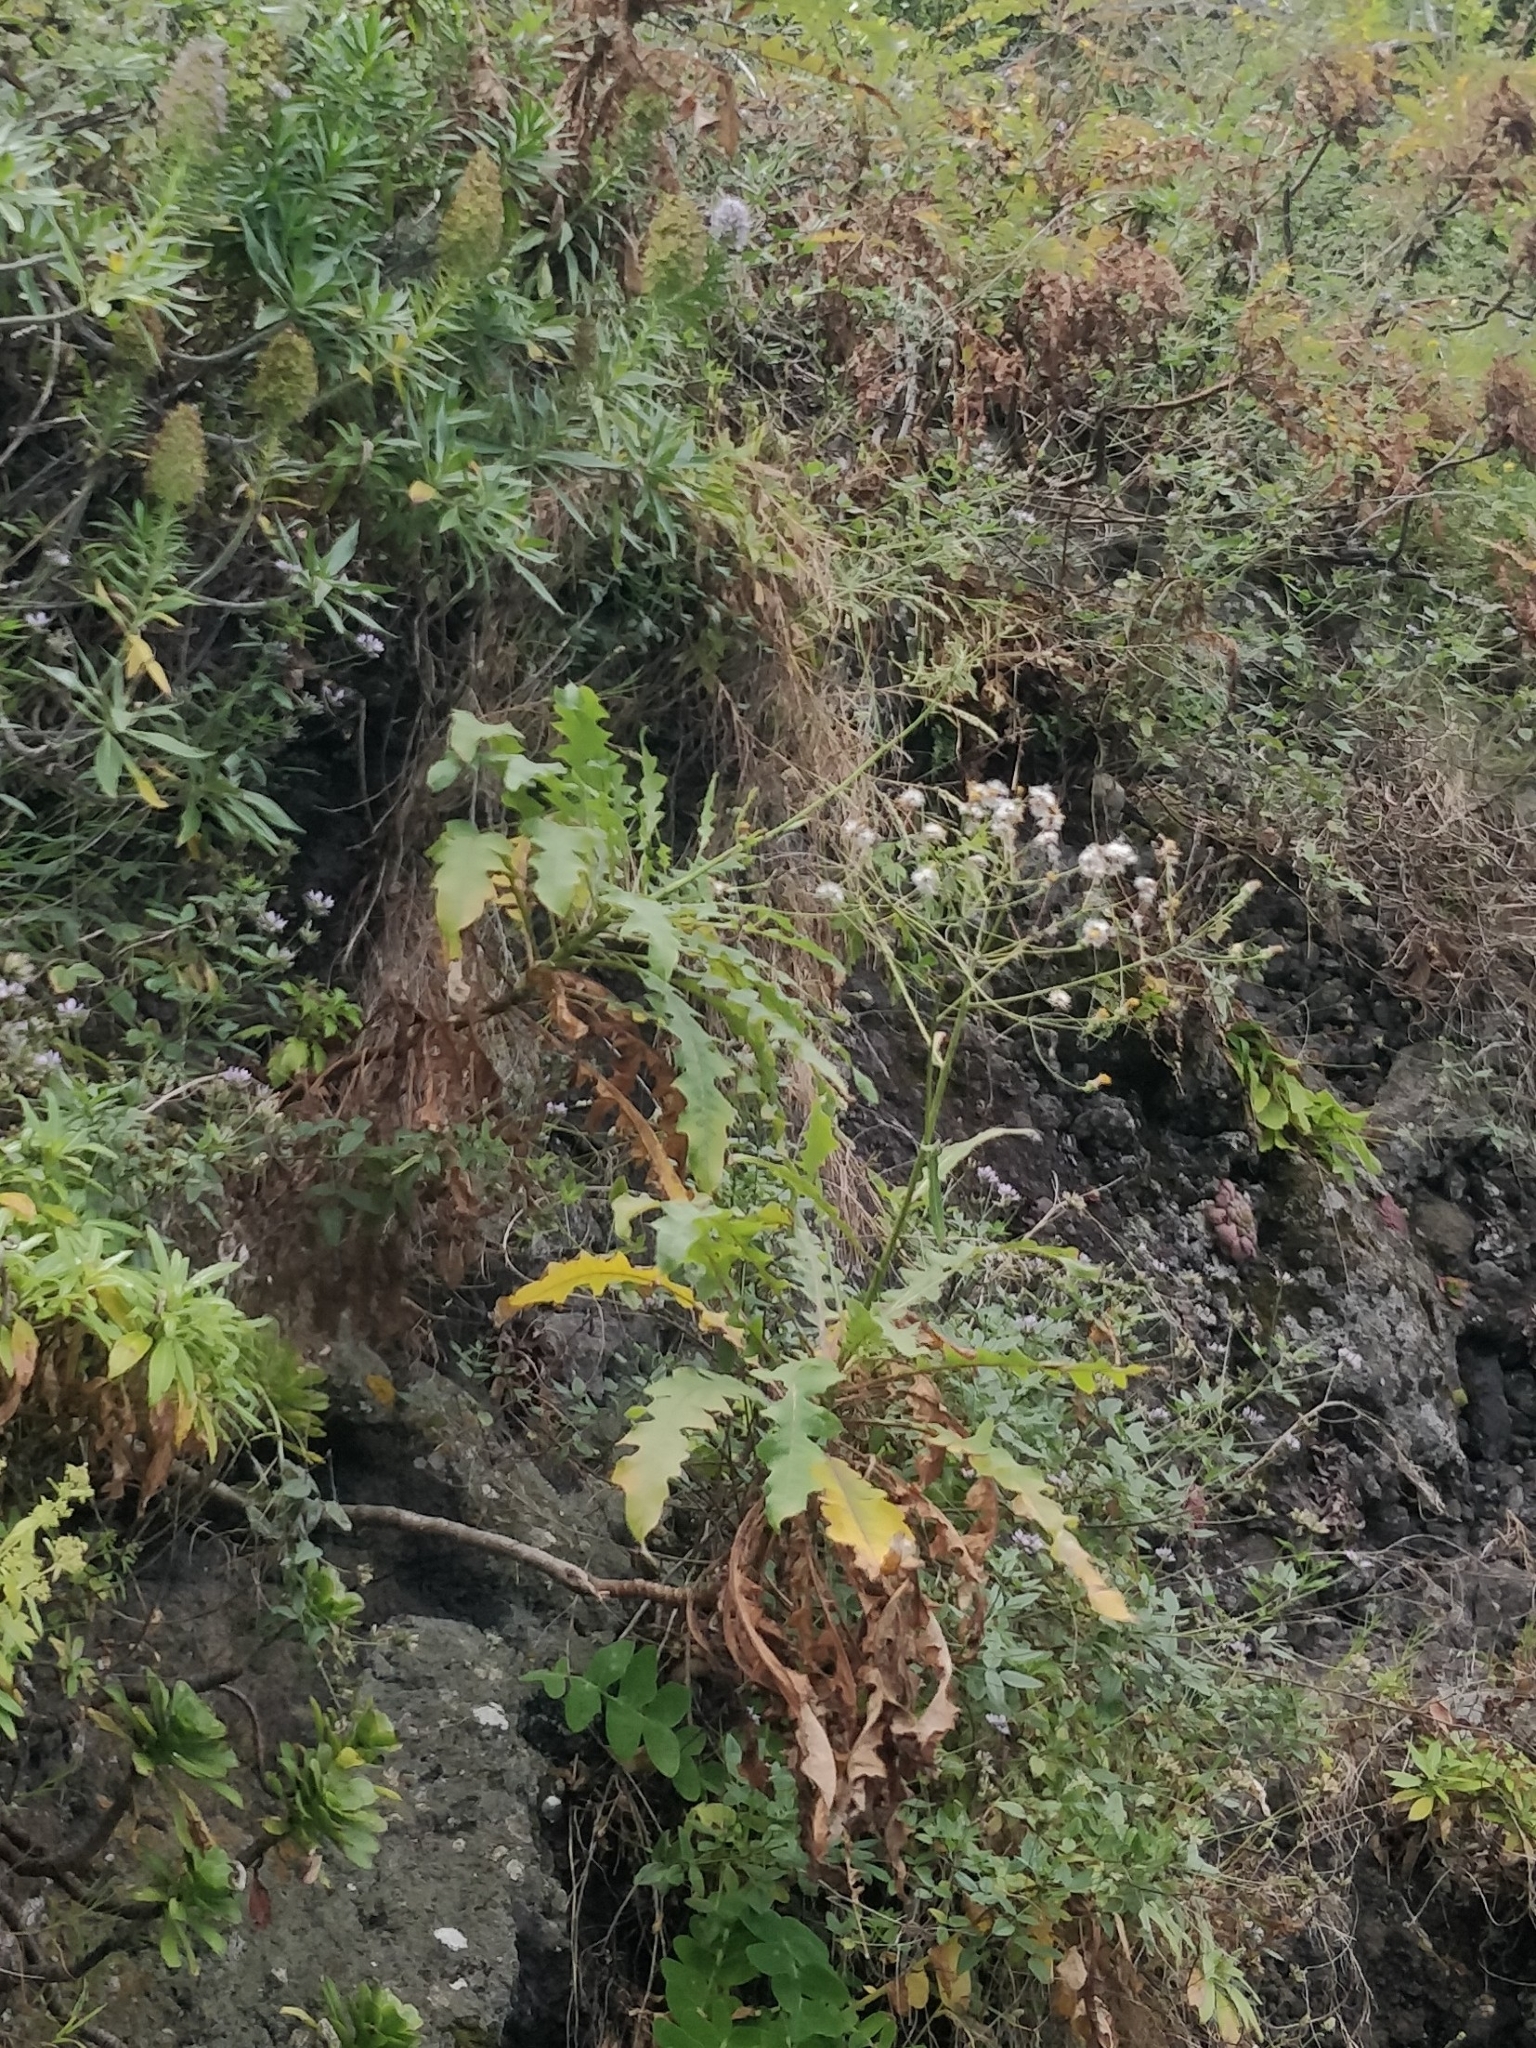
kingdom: Plantae
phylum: Tracheophyta
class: Magnoliopsida
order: Asterales
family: Asteraceae
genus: Sonchus
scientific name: Sonchus pinnatus
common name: Wing-leaved sow-thistle
